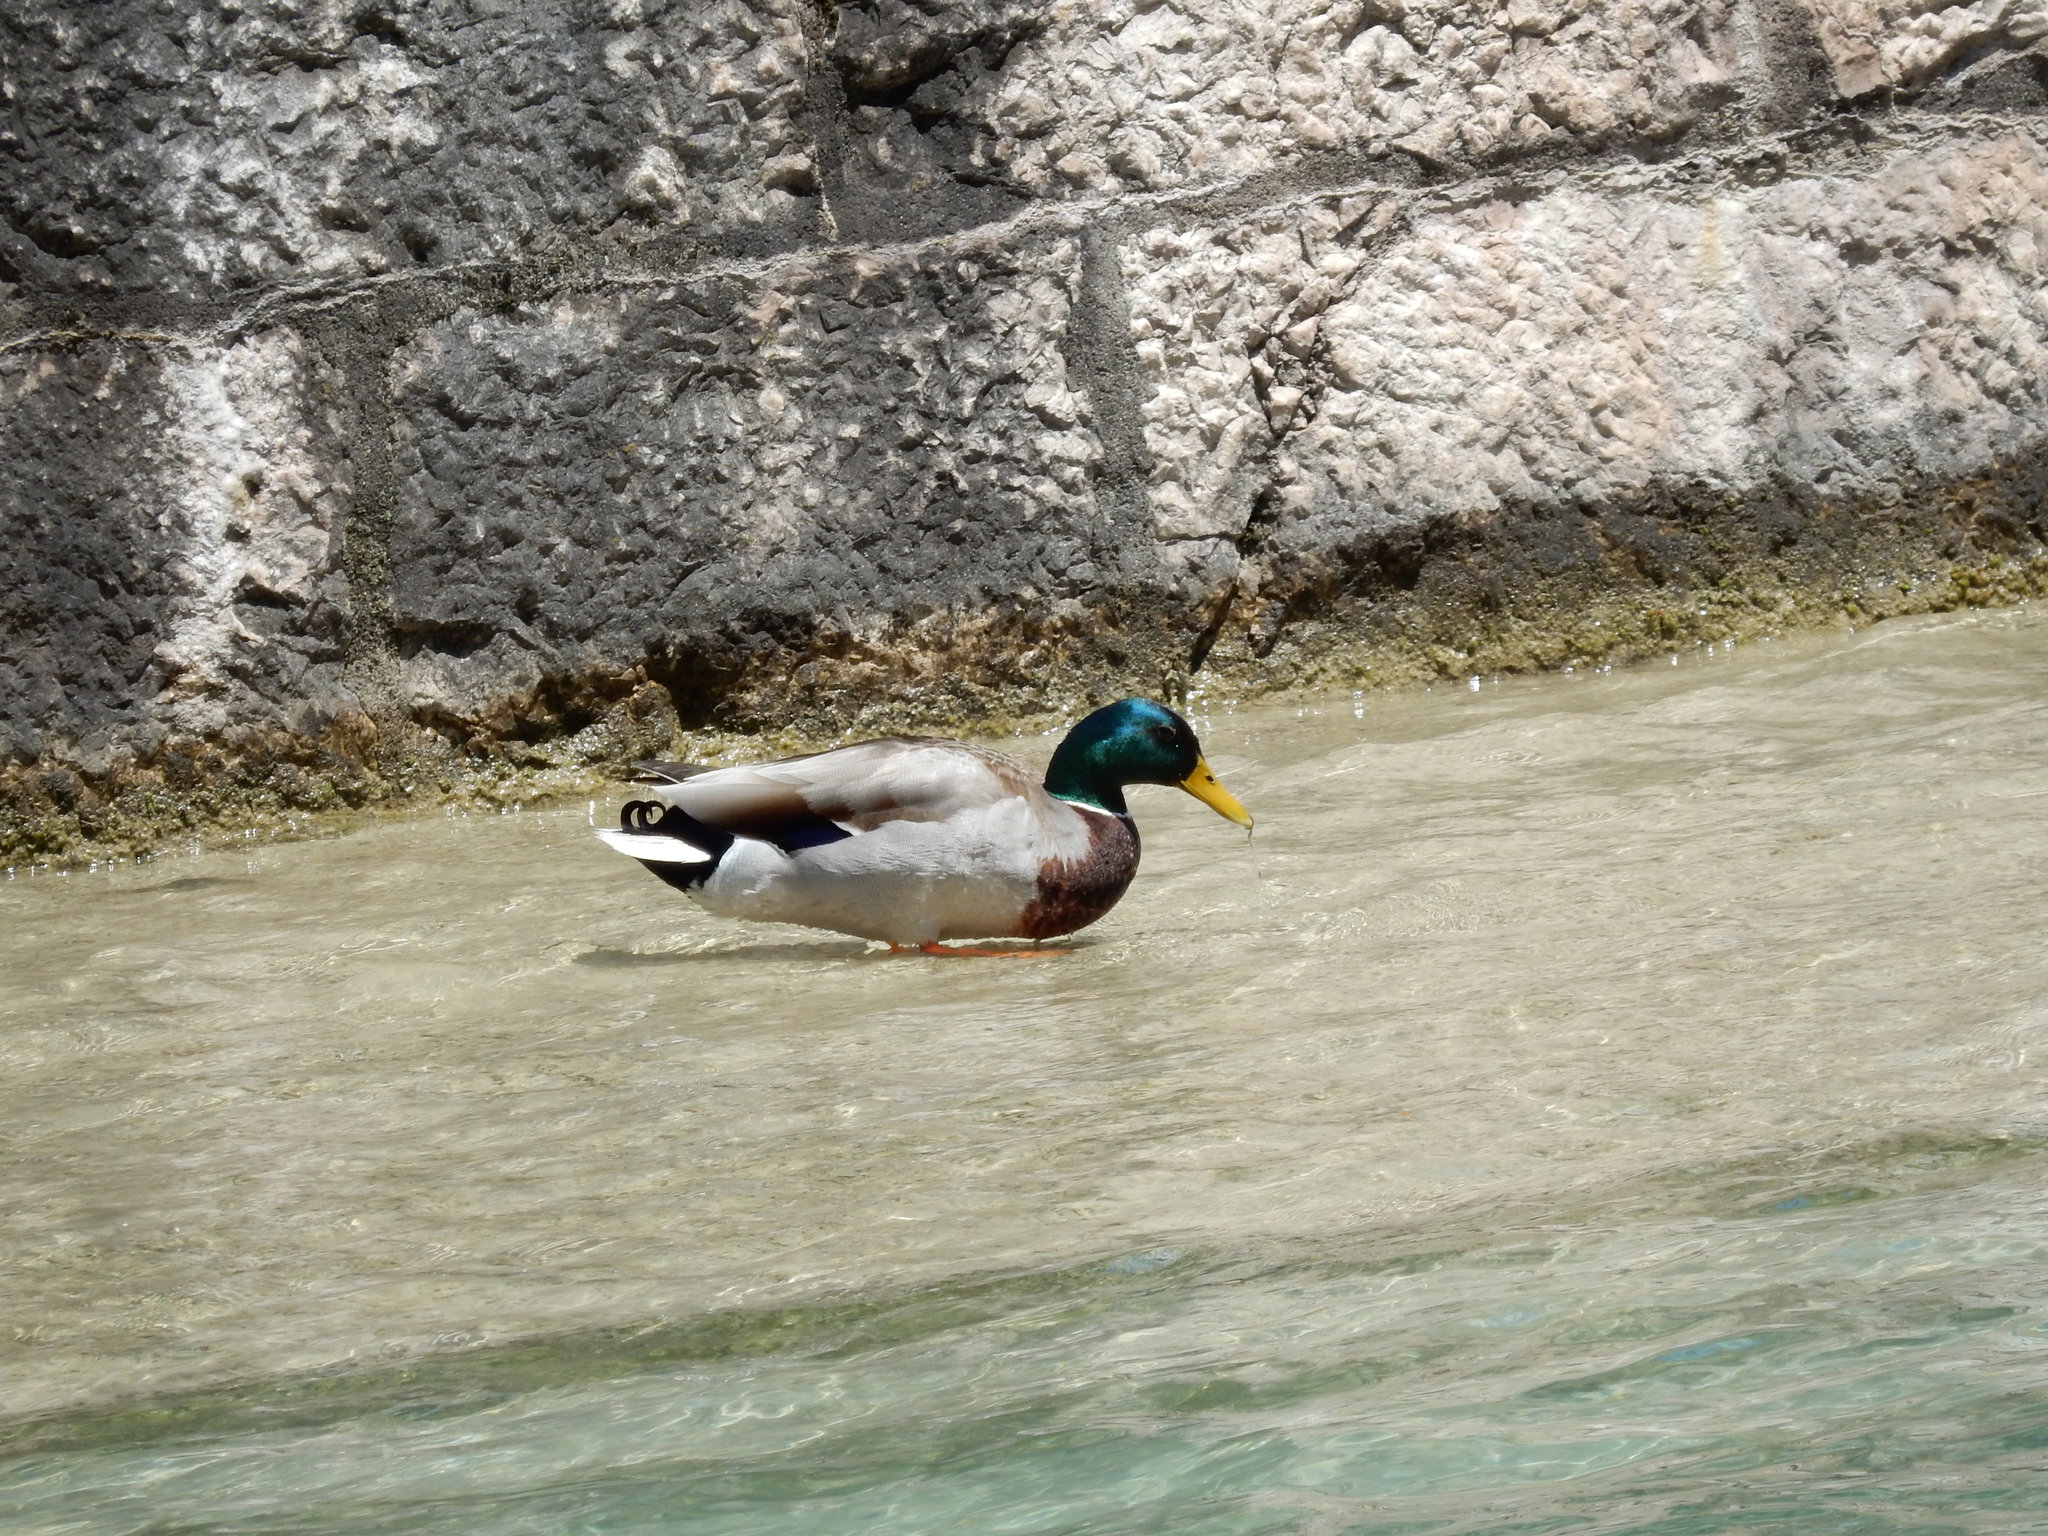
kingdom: Animalia
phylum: Chordata
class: Aves
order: Anseriformes
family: Anatidae
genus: Anas
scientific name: Anas platyrhynchos
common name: Mallard
